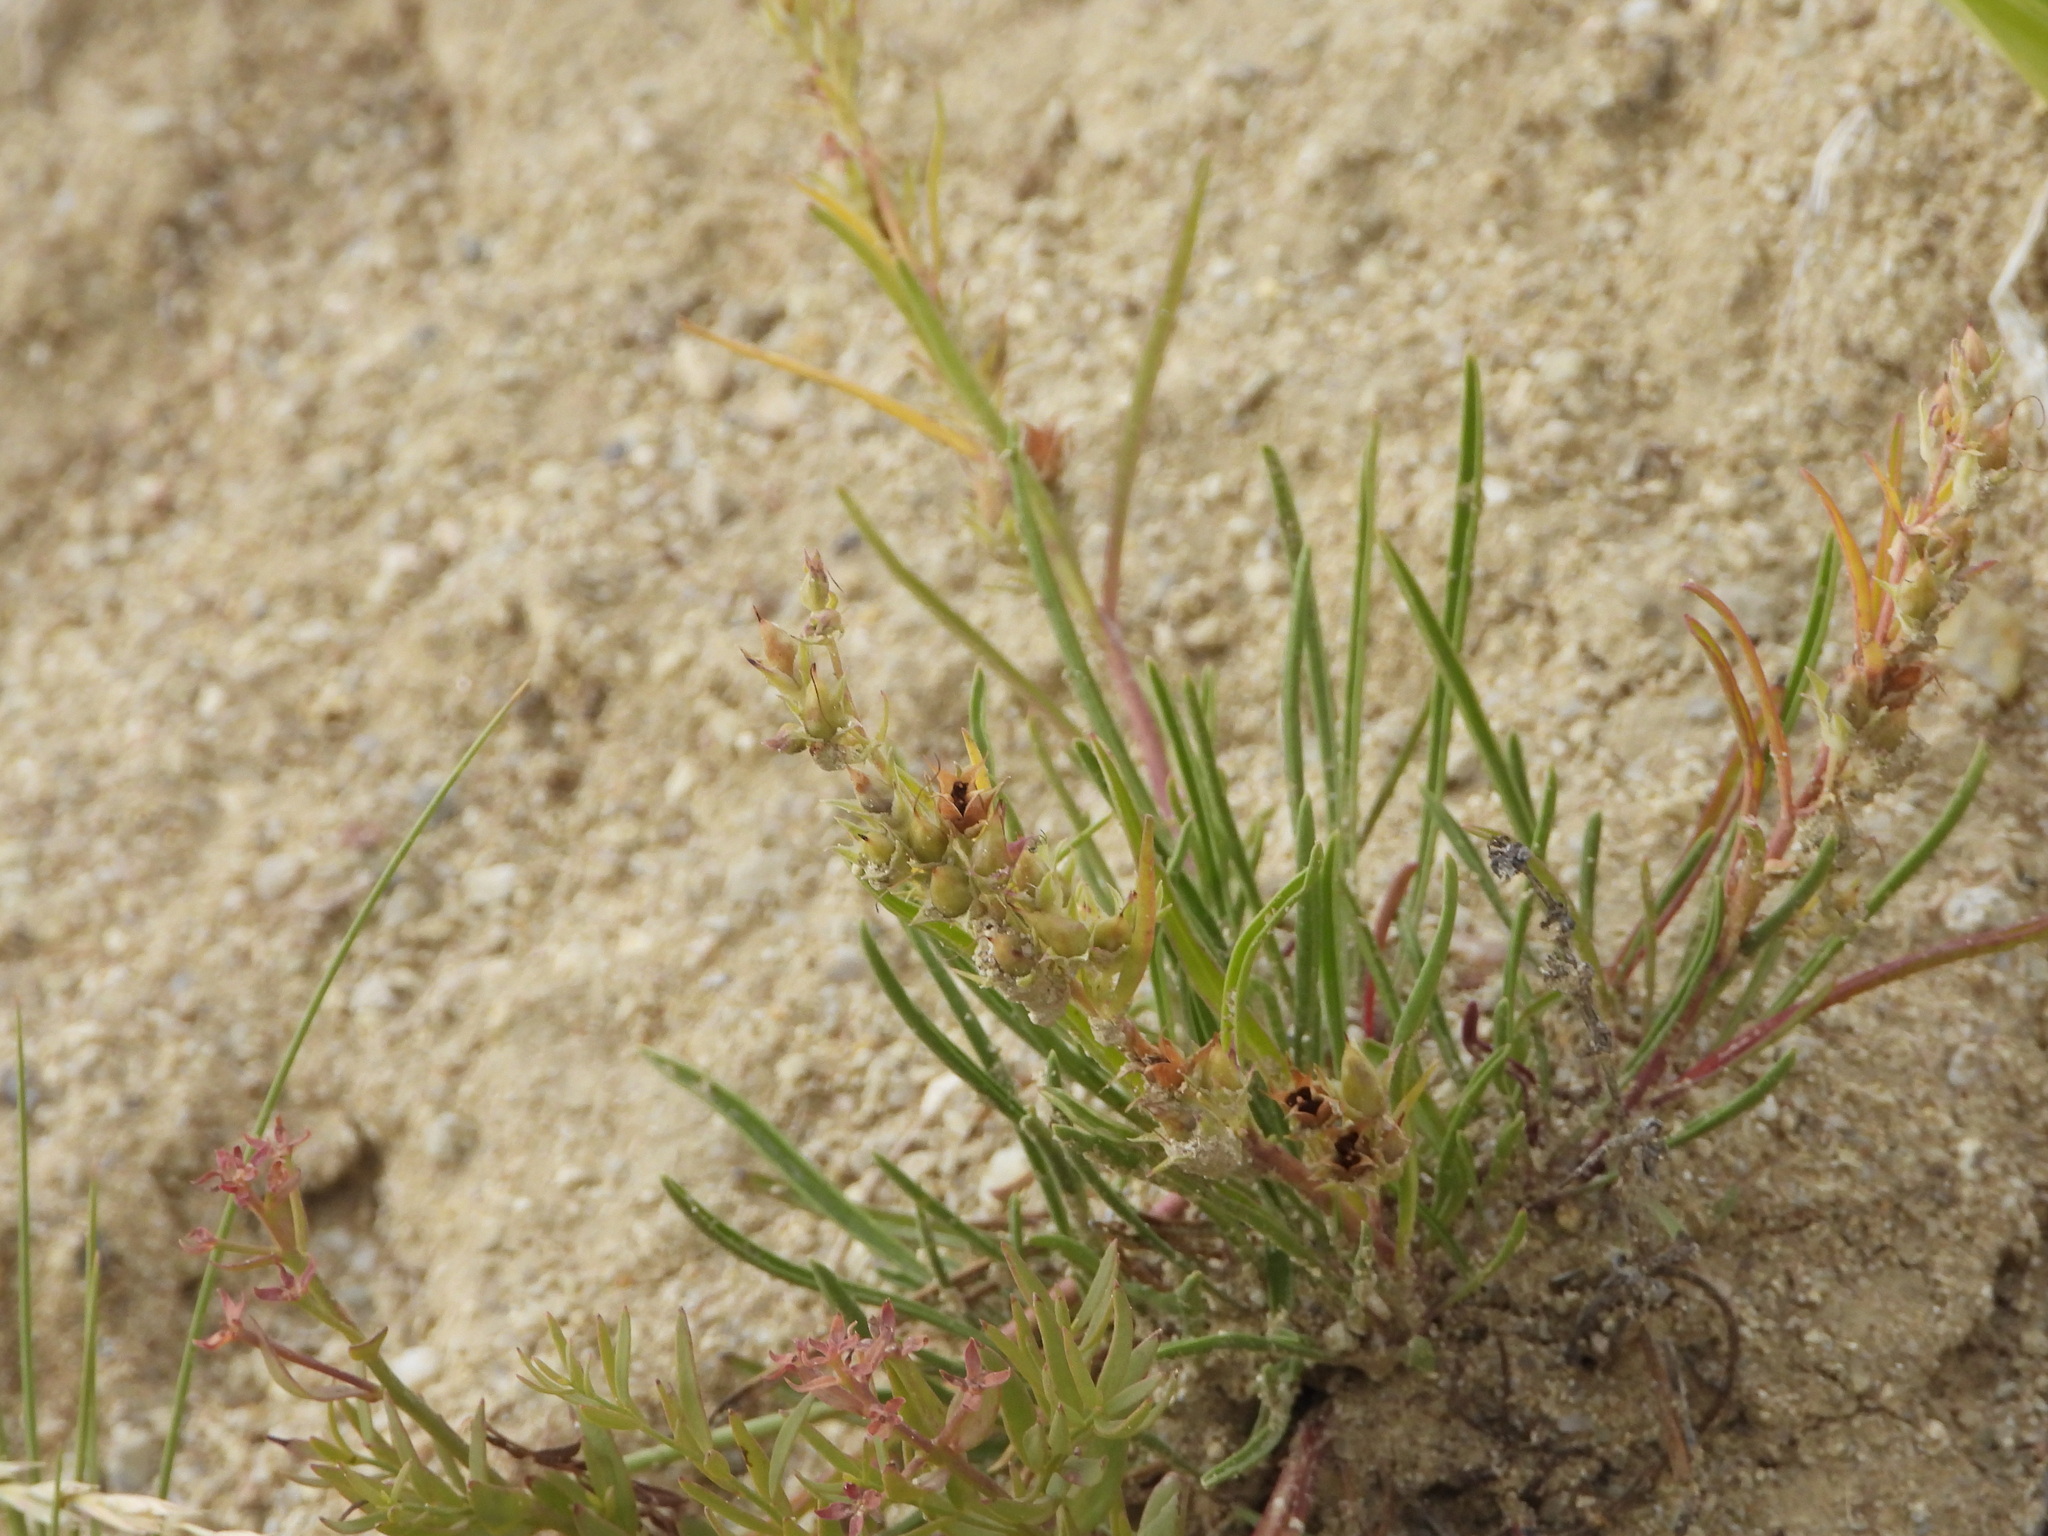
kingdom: Plantae
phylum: Tracheophyta
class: Magnoliopsida
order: Lamiales
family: Plantaginaceae
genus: Penstemon
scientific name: Penstemon penlandii
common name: Penland's beardtongue
